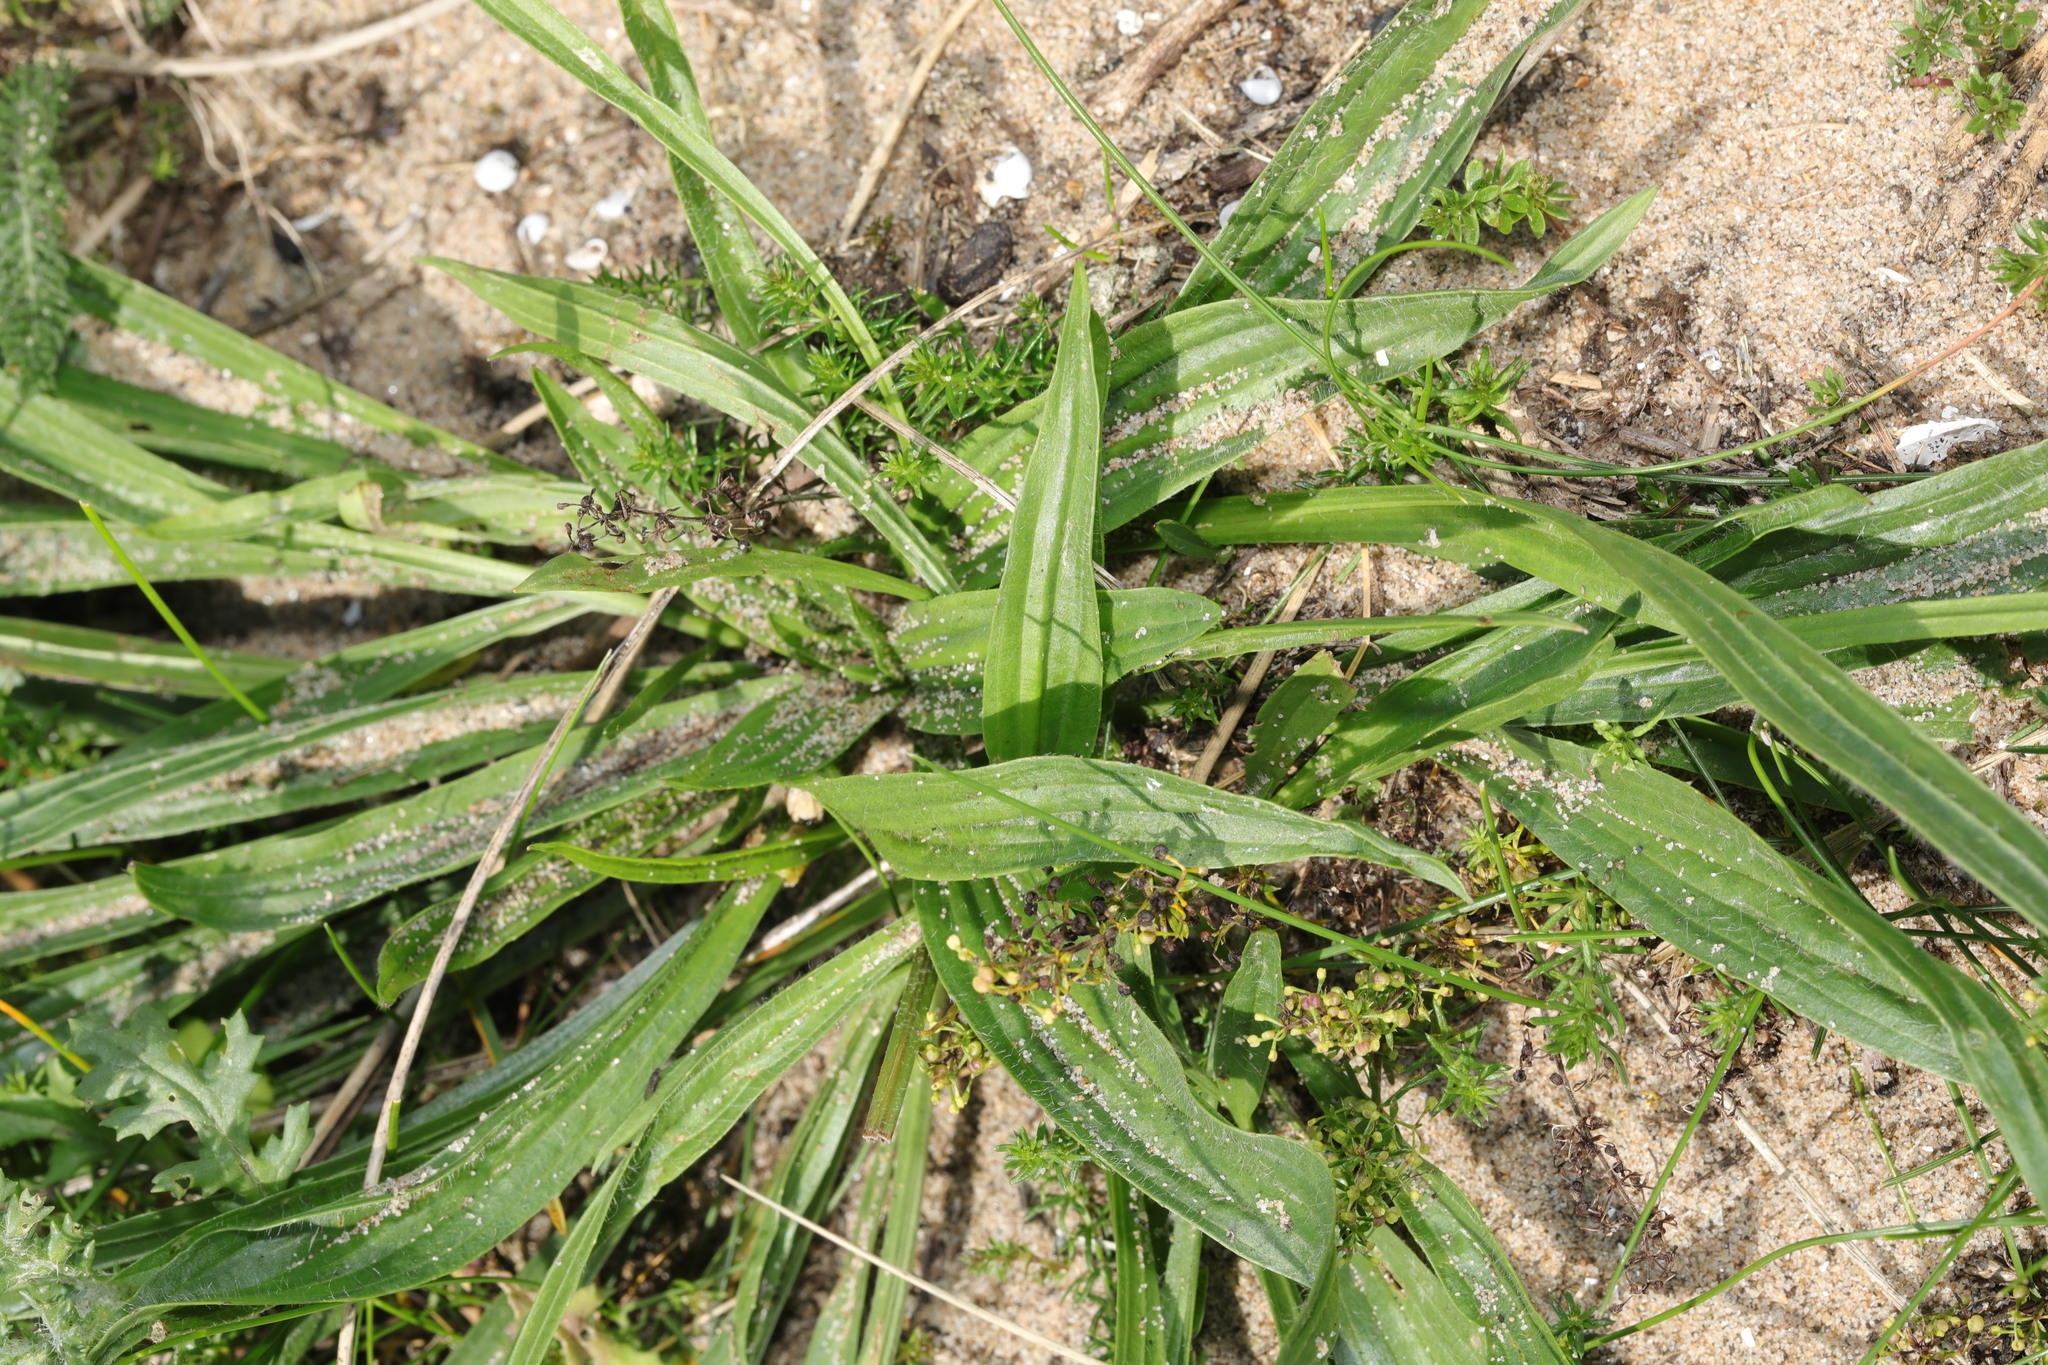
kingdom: Plantae
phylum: Tracheophyta
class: Magnoliopsida
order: Lamiales
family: Plantaginaceae
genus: Plantago
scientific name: Plantago lanceolata
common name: Ribwort plantain
